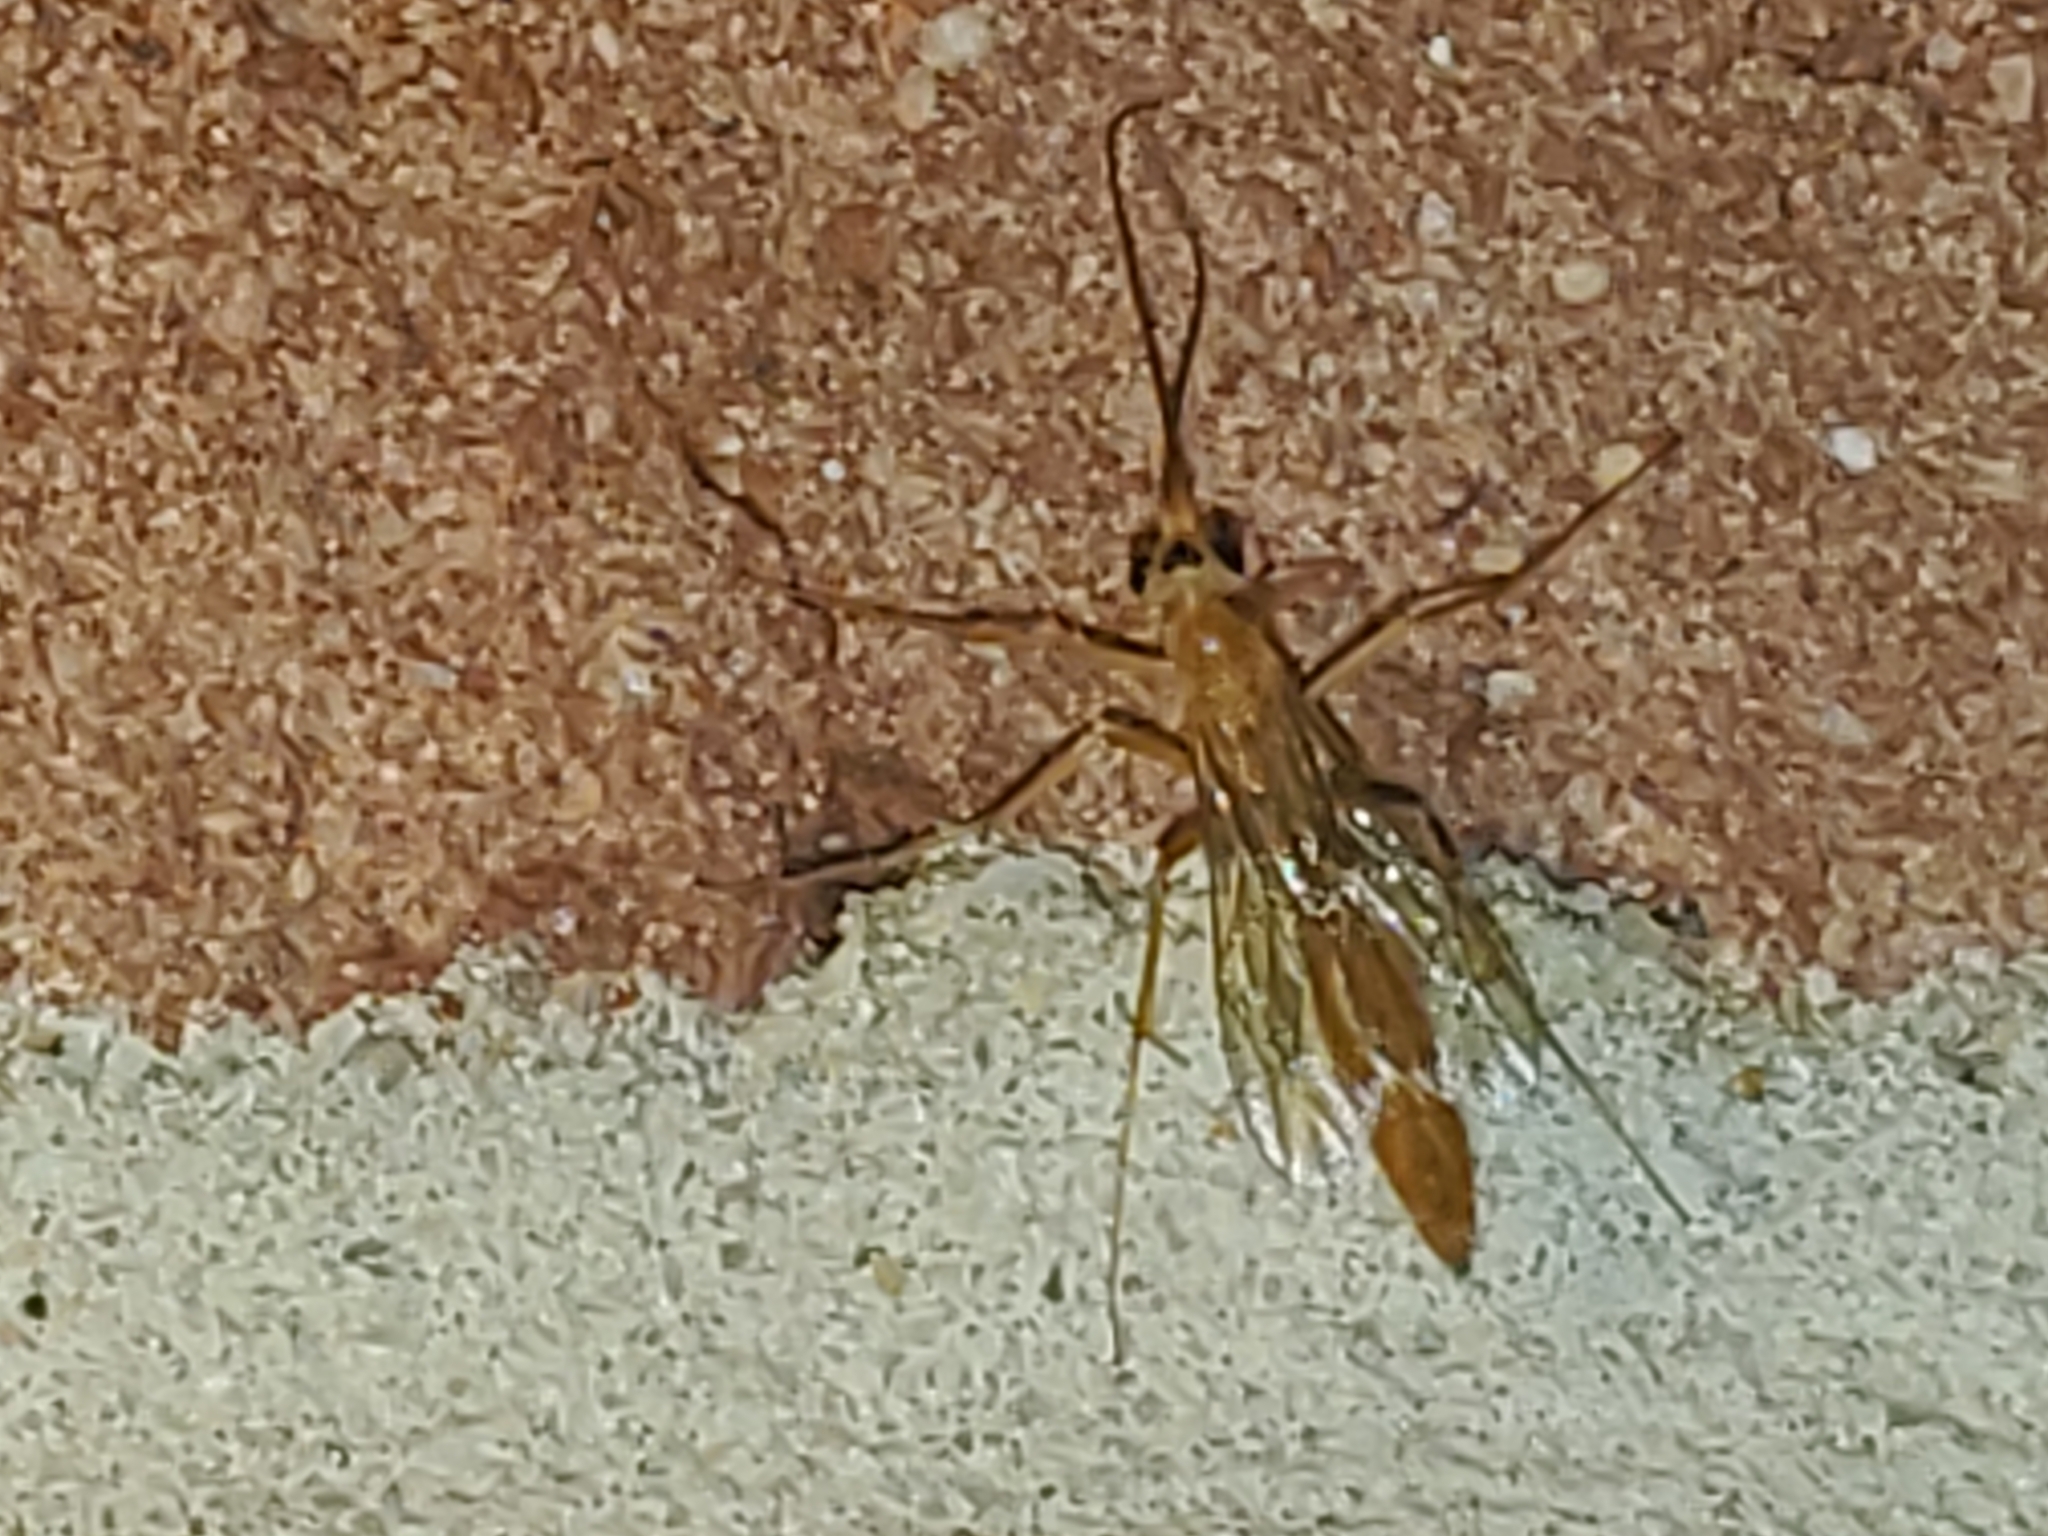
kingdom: Animalia
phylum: Arthropoda
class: Insecta
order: Hymenoptera
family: Rhopalosomatidae
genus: Rhopalosoma
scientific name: Rhopalosoma nearcticum
